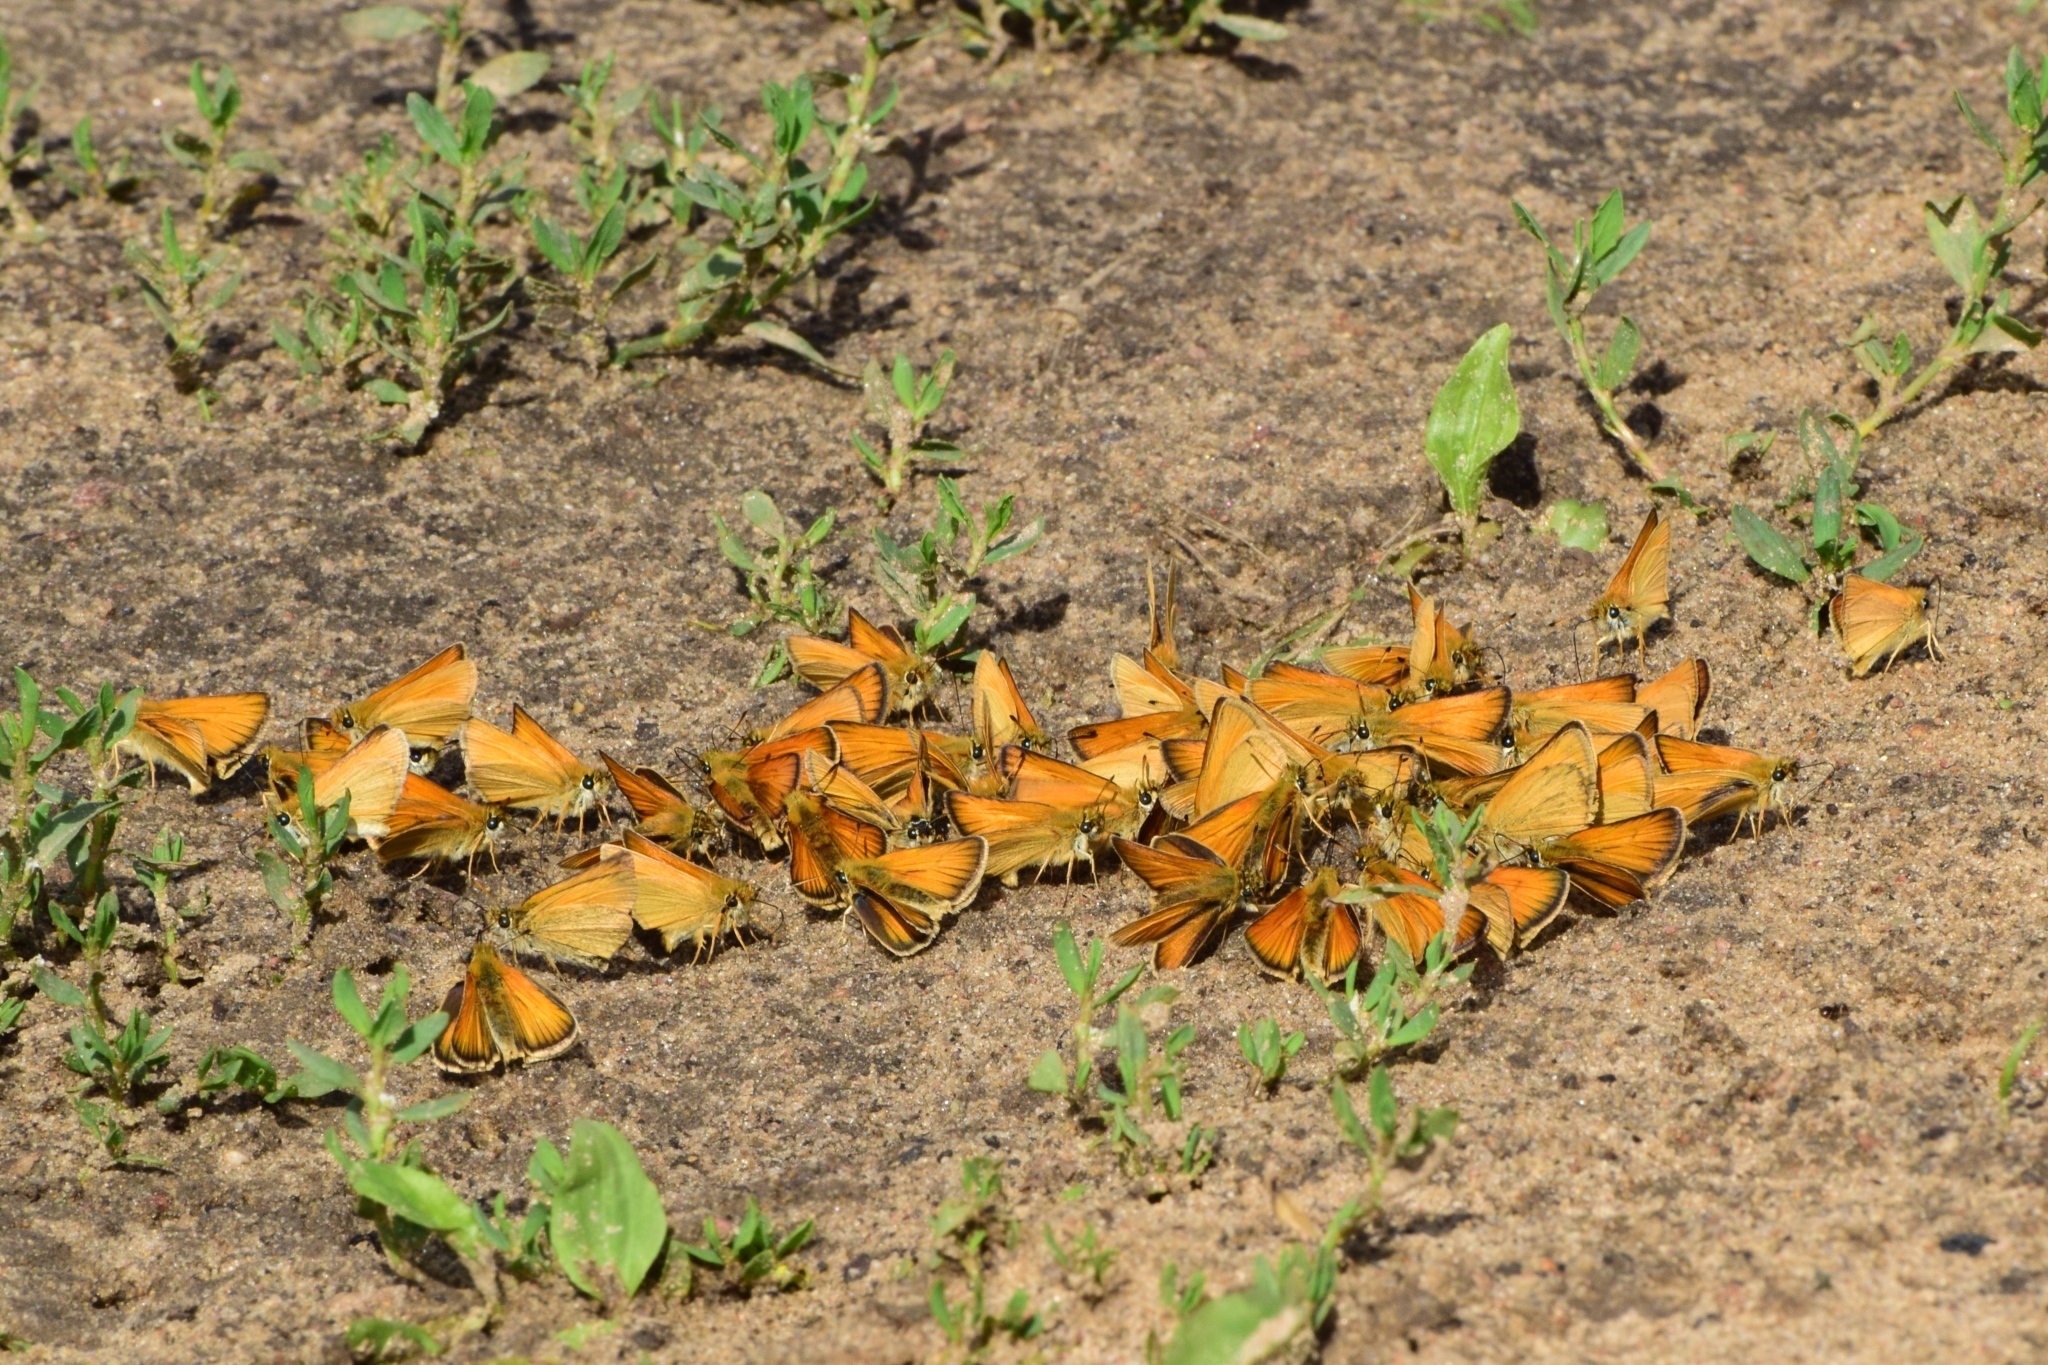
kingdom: Animalia
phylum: Arthropoda
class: Insecta
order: Lepidoptera
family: Hesperiidae
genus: Thymelicus
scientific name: Thymelicus lineola
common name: Essex skipper
